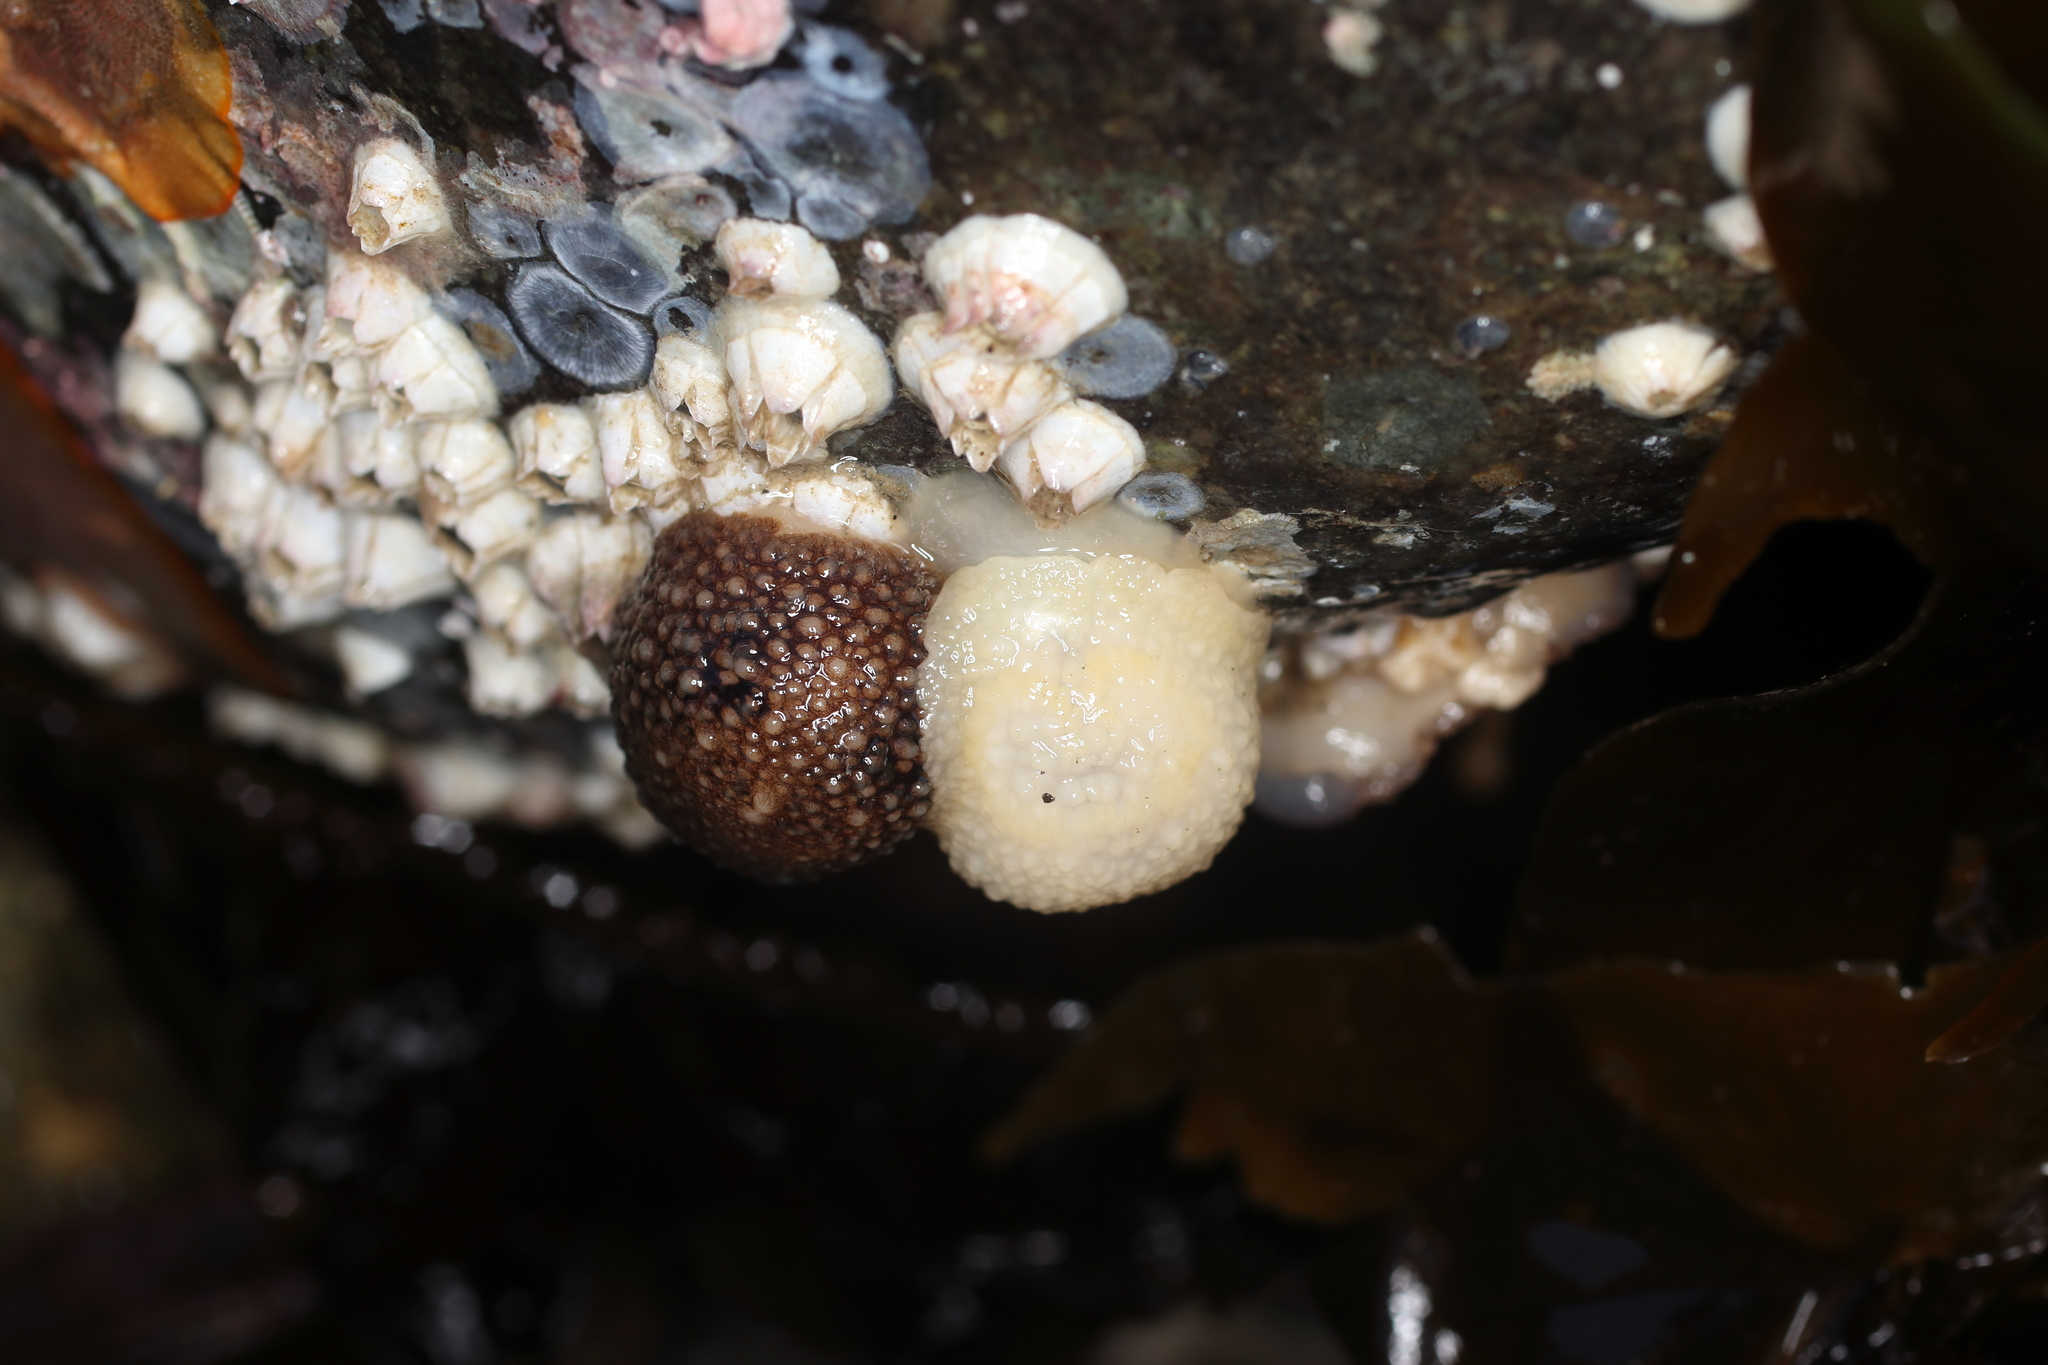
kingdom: Animalia
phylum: Mollusca
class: Gastropoda
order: Nudibranchia
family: Onchidorididae
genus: Onchidoris
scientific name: Onchidoris bilamellata
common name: Barnacle-eating onchidoris
